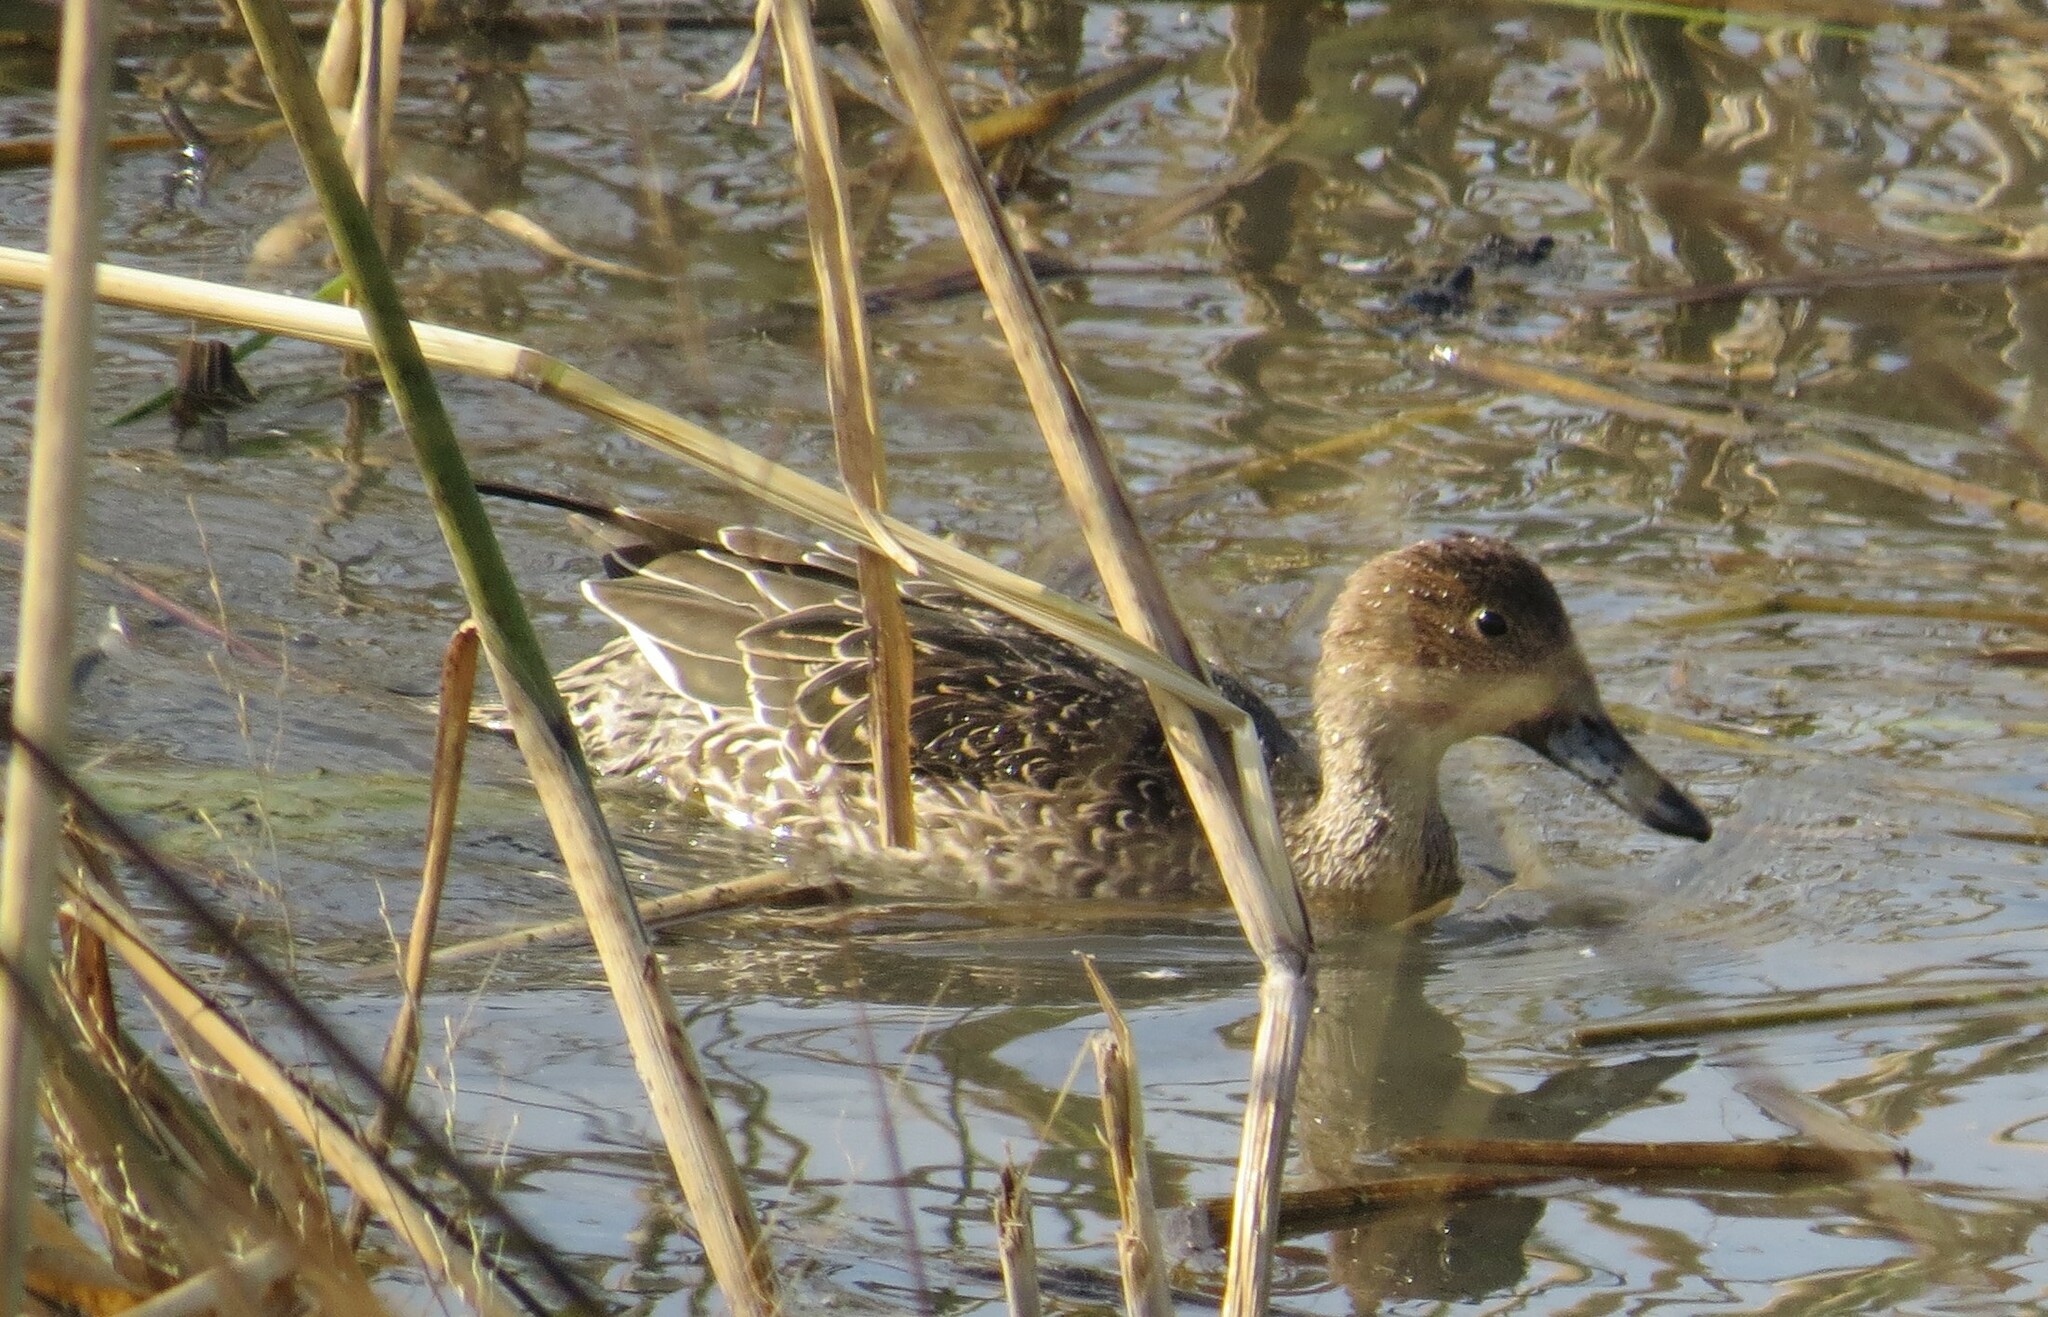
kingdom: Animalia
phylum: Chordata
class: Aves
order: Anseriformes
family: Anatidae
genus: Anas
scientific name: Anas acuta
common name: Northern pintail
